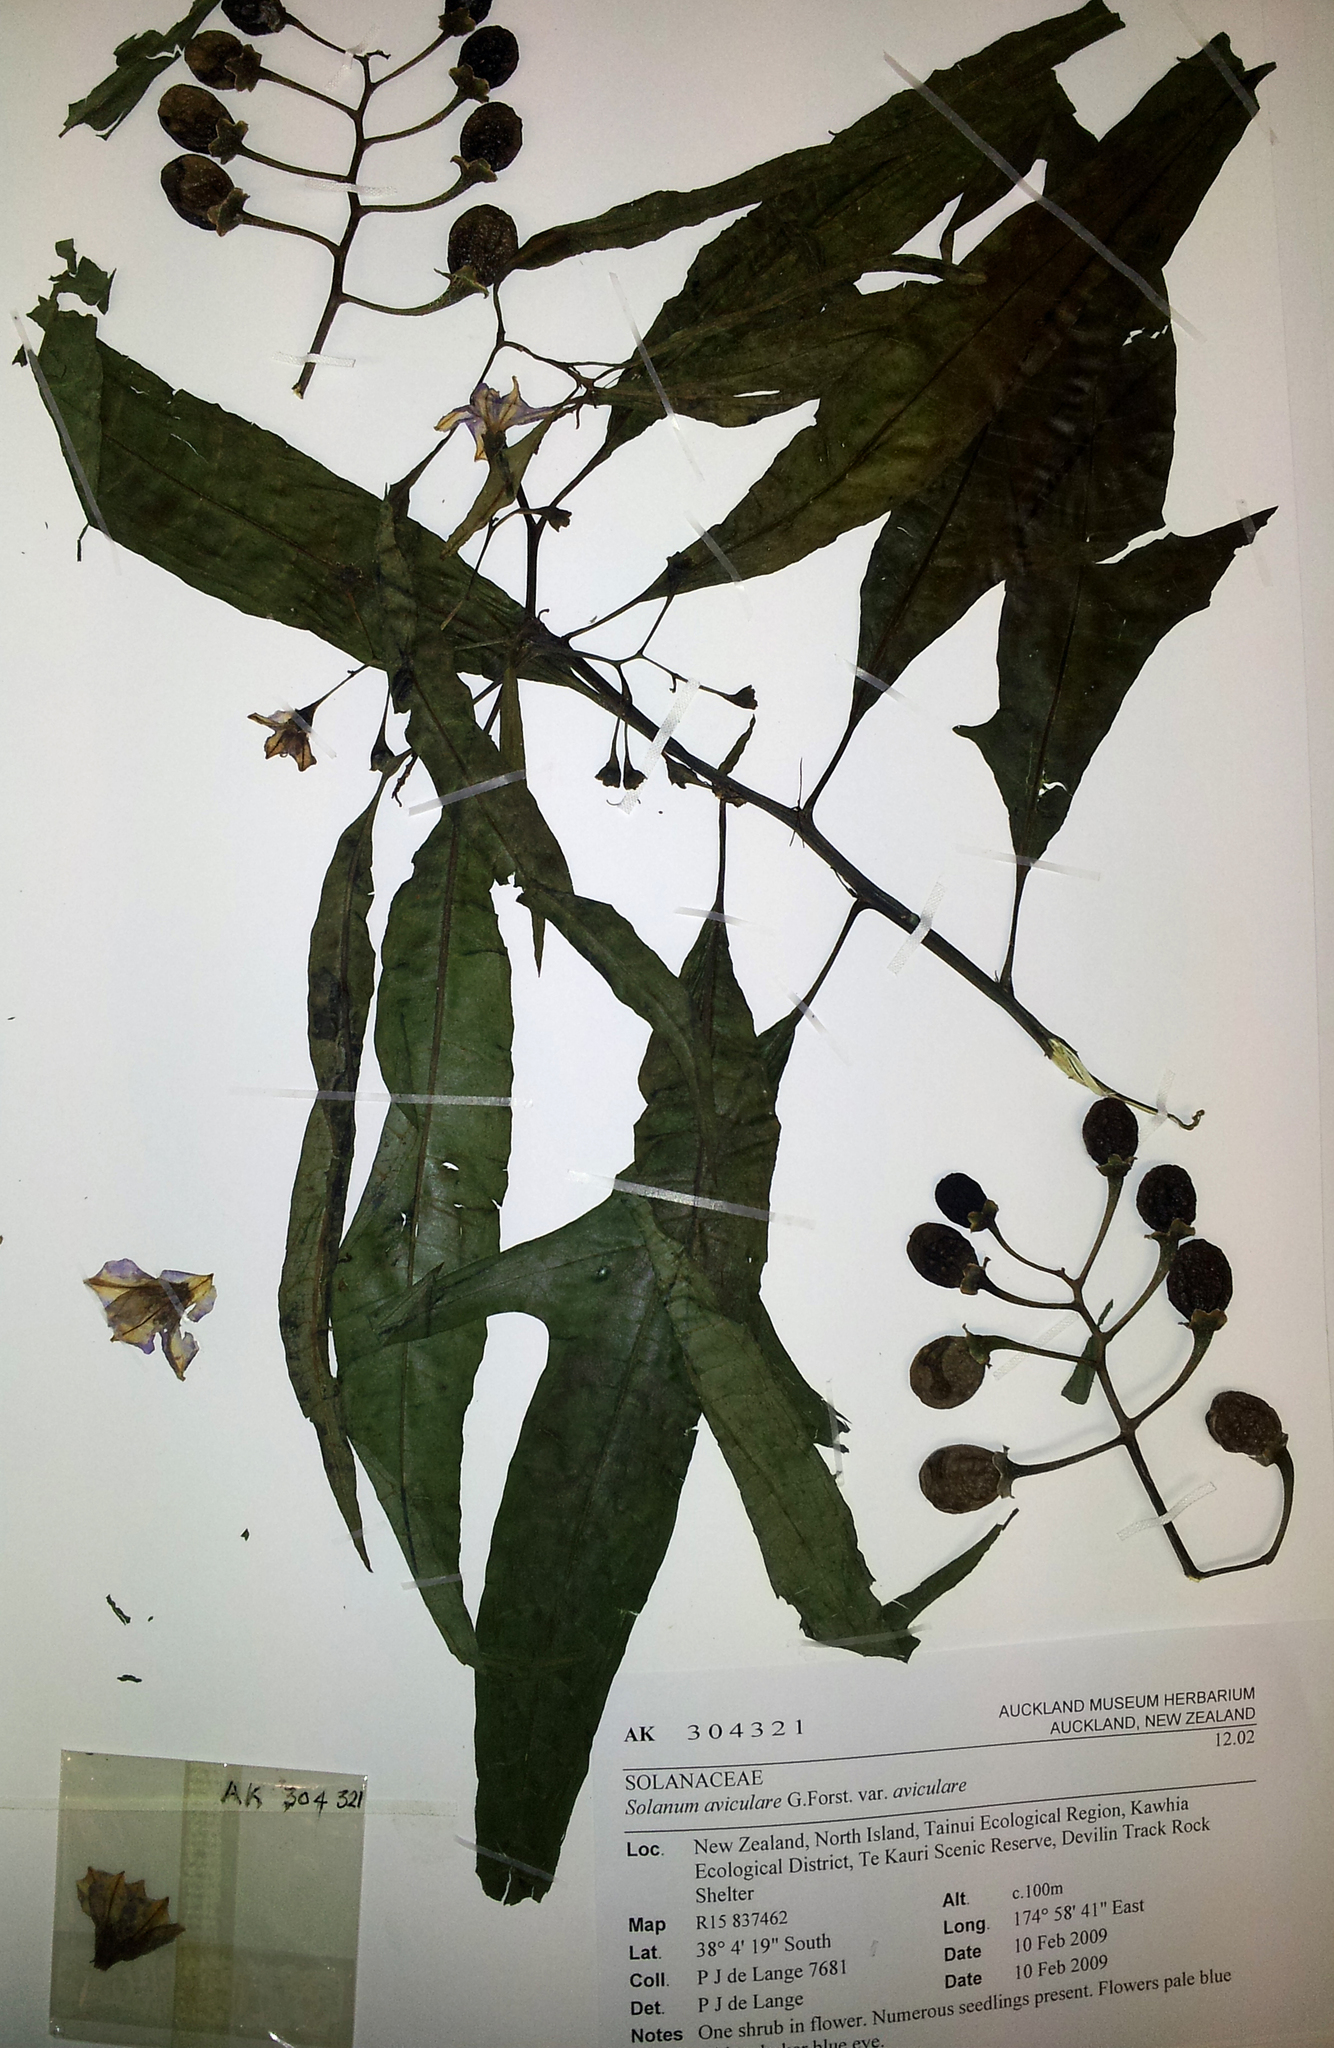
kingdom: Plantae
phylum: Tracheophyta
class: Magnoliopsida
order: Solanales
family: Solanaceae
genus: Solanum
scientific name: Solanum aviculare
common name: New zealand nightshade
